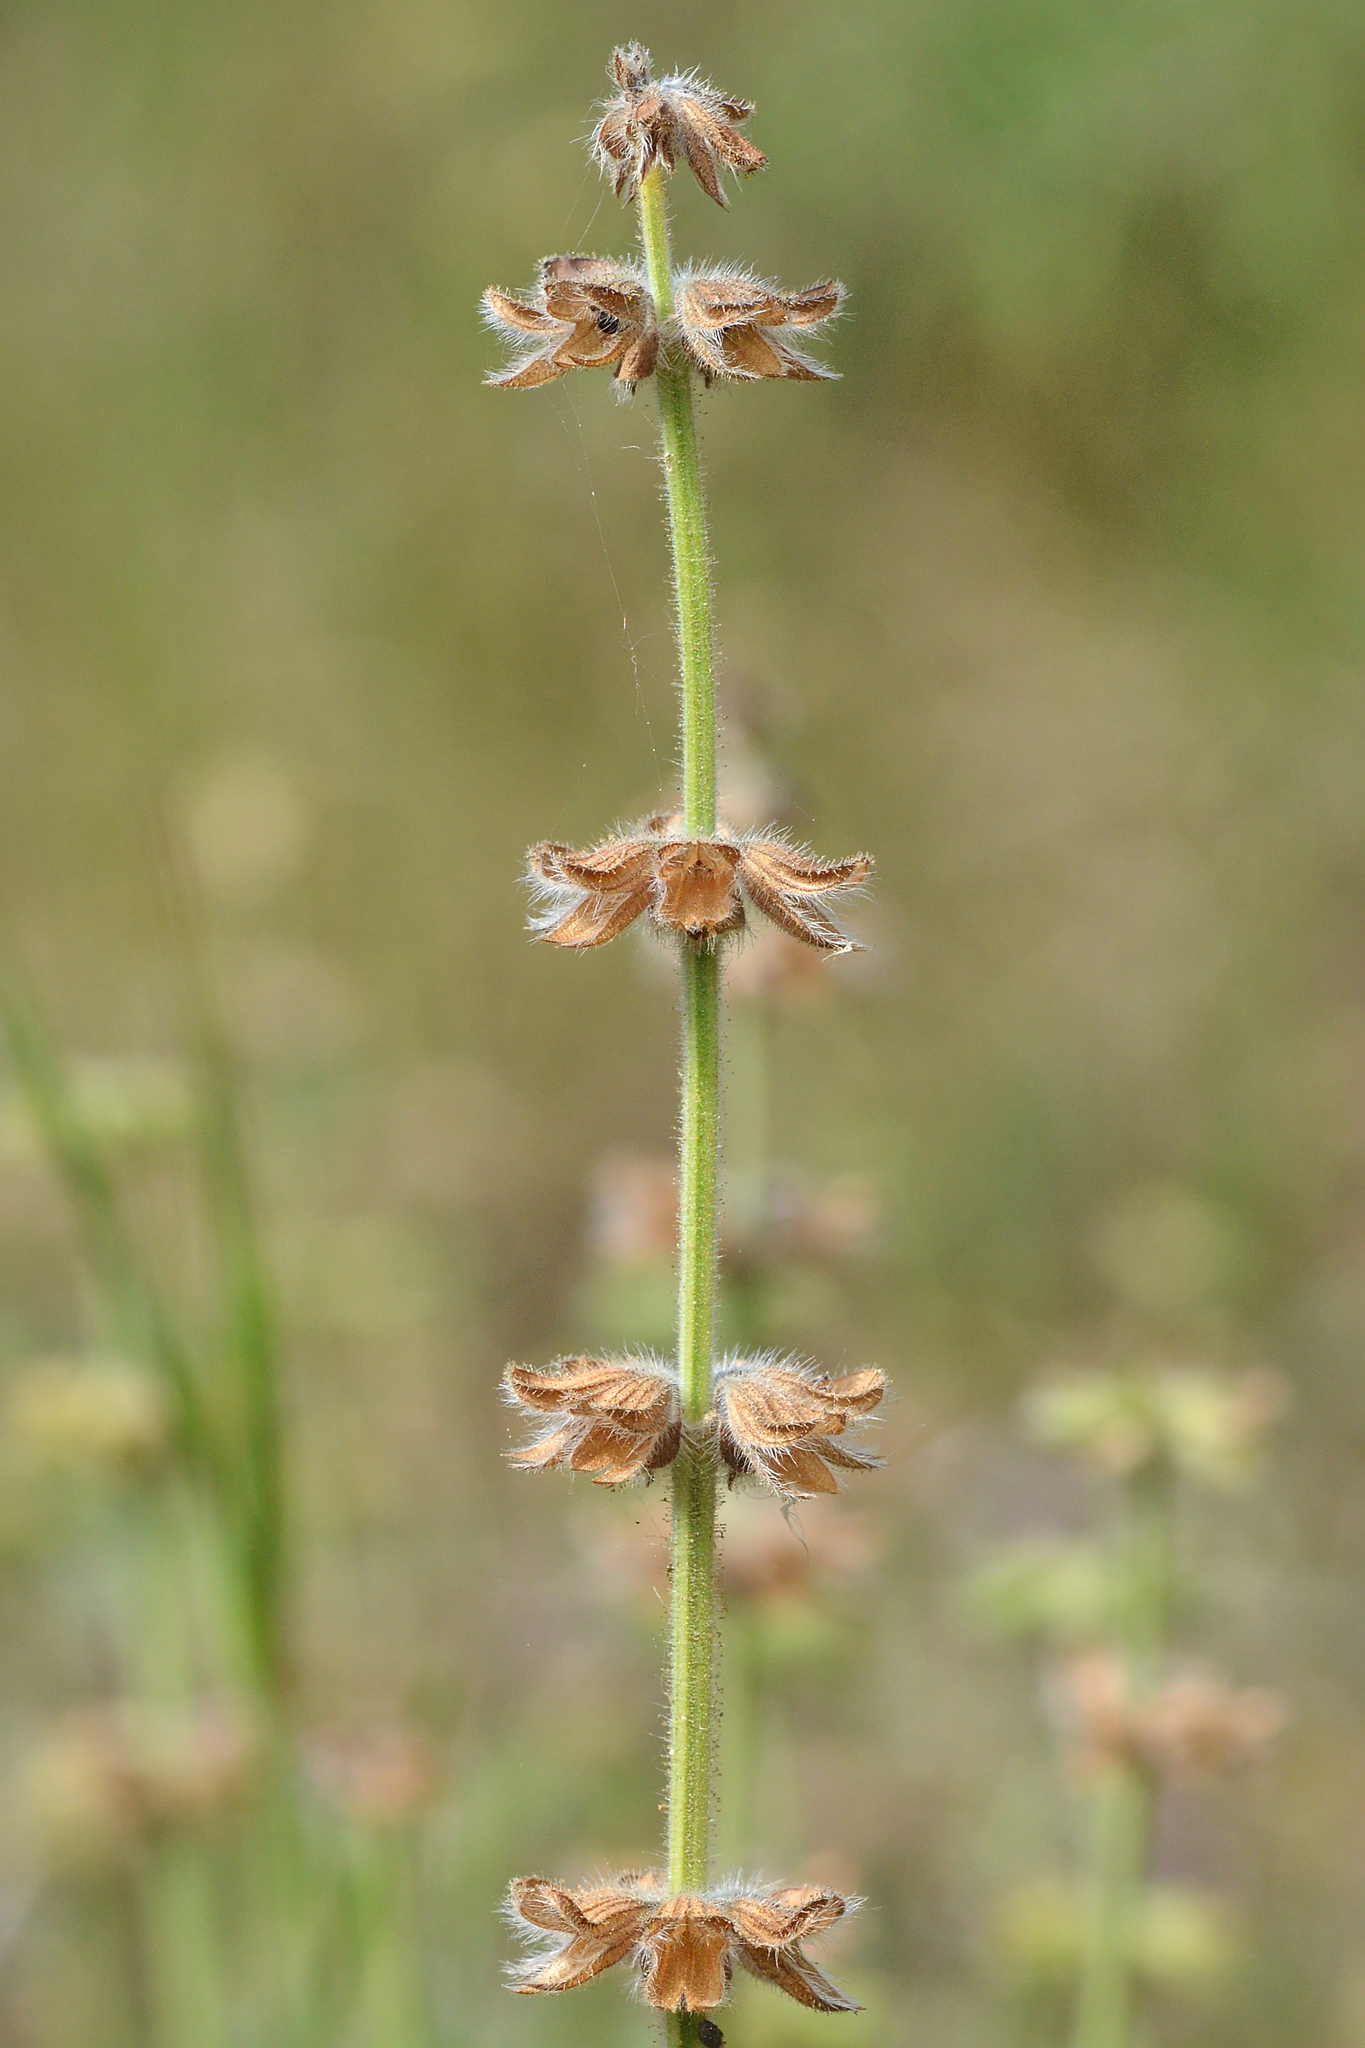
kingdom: Plantae
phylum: Tracheophyta
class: Magnoliopsida
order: Lamiales
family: Lamiaceae
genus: Salvia
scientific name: Salvia verbenaca
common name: Wild clary
